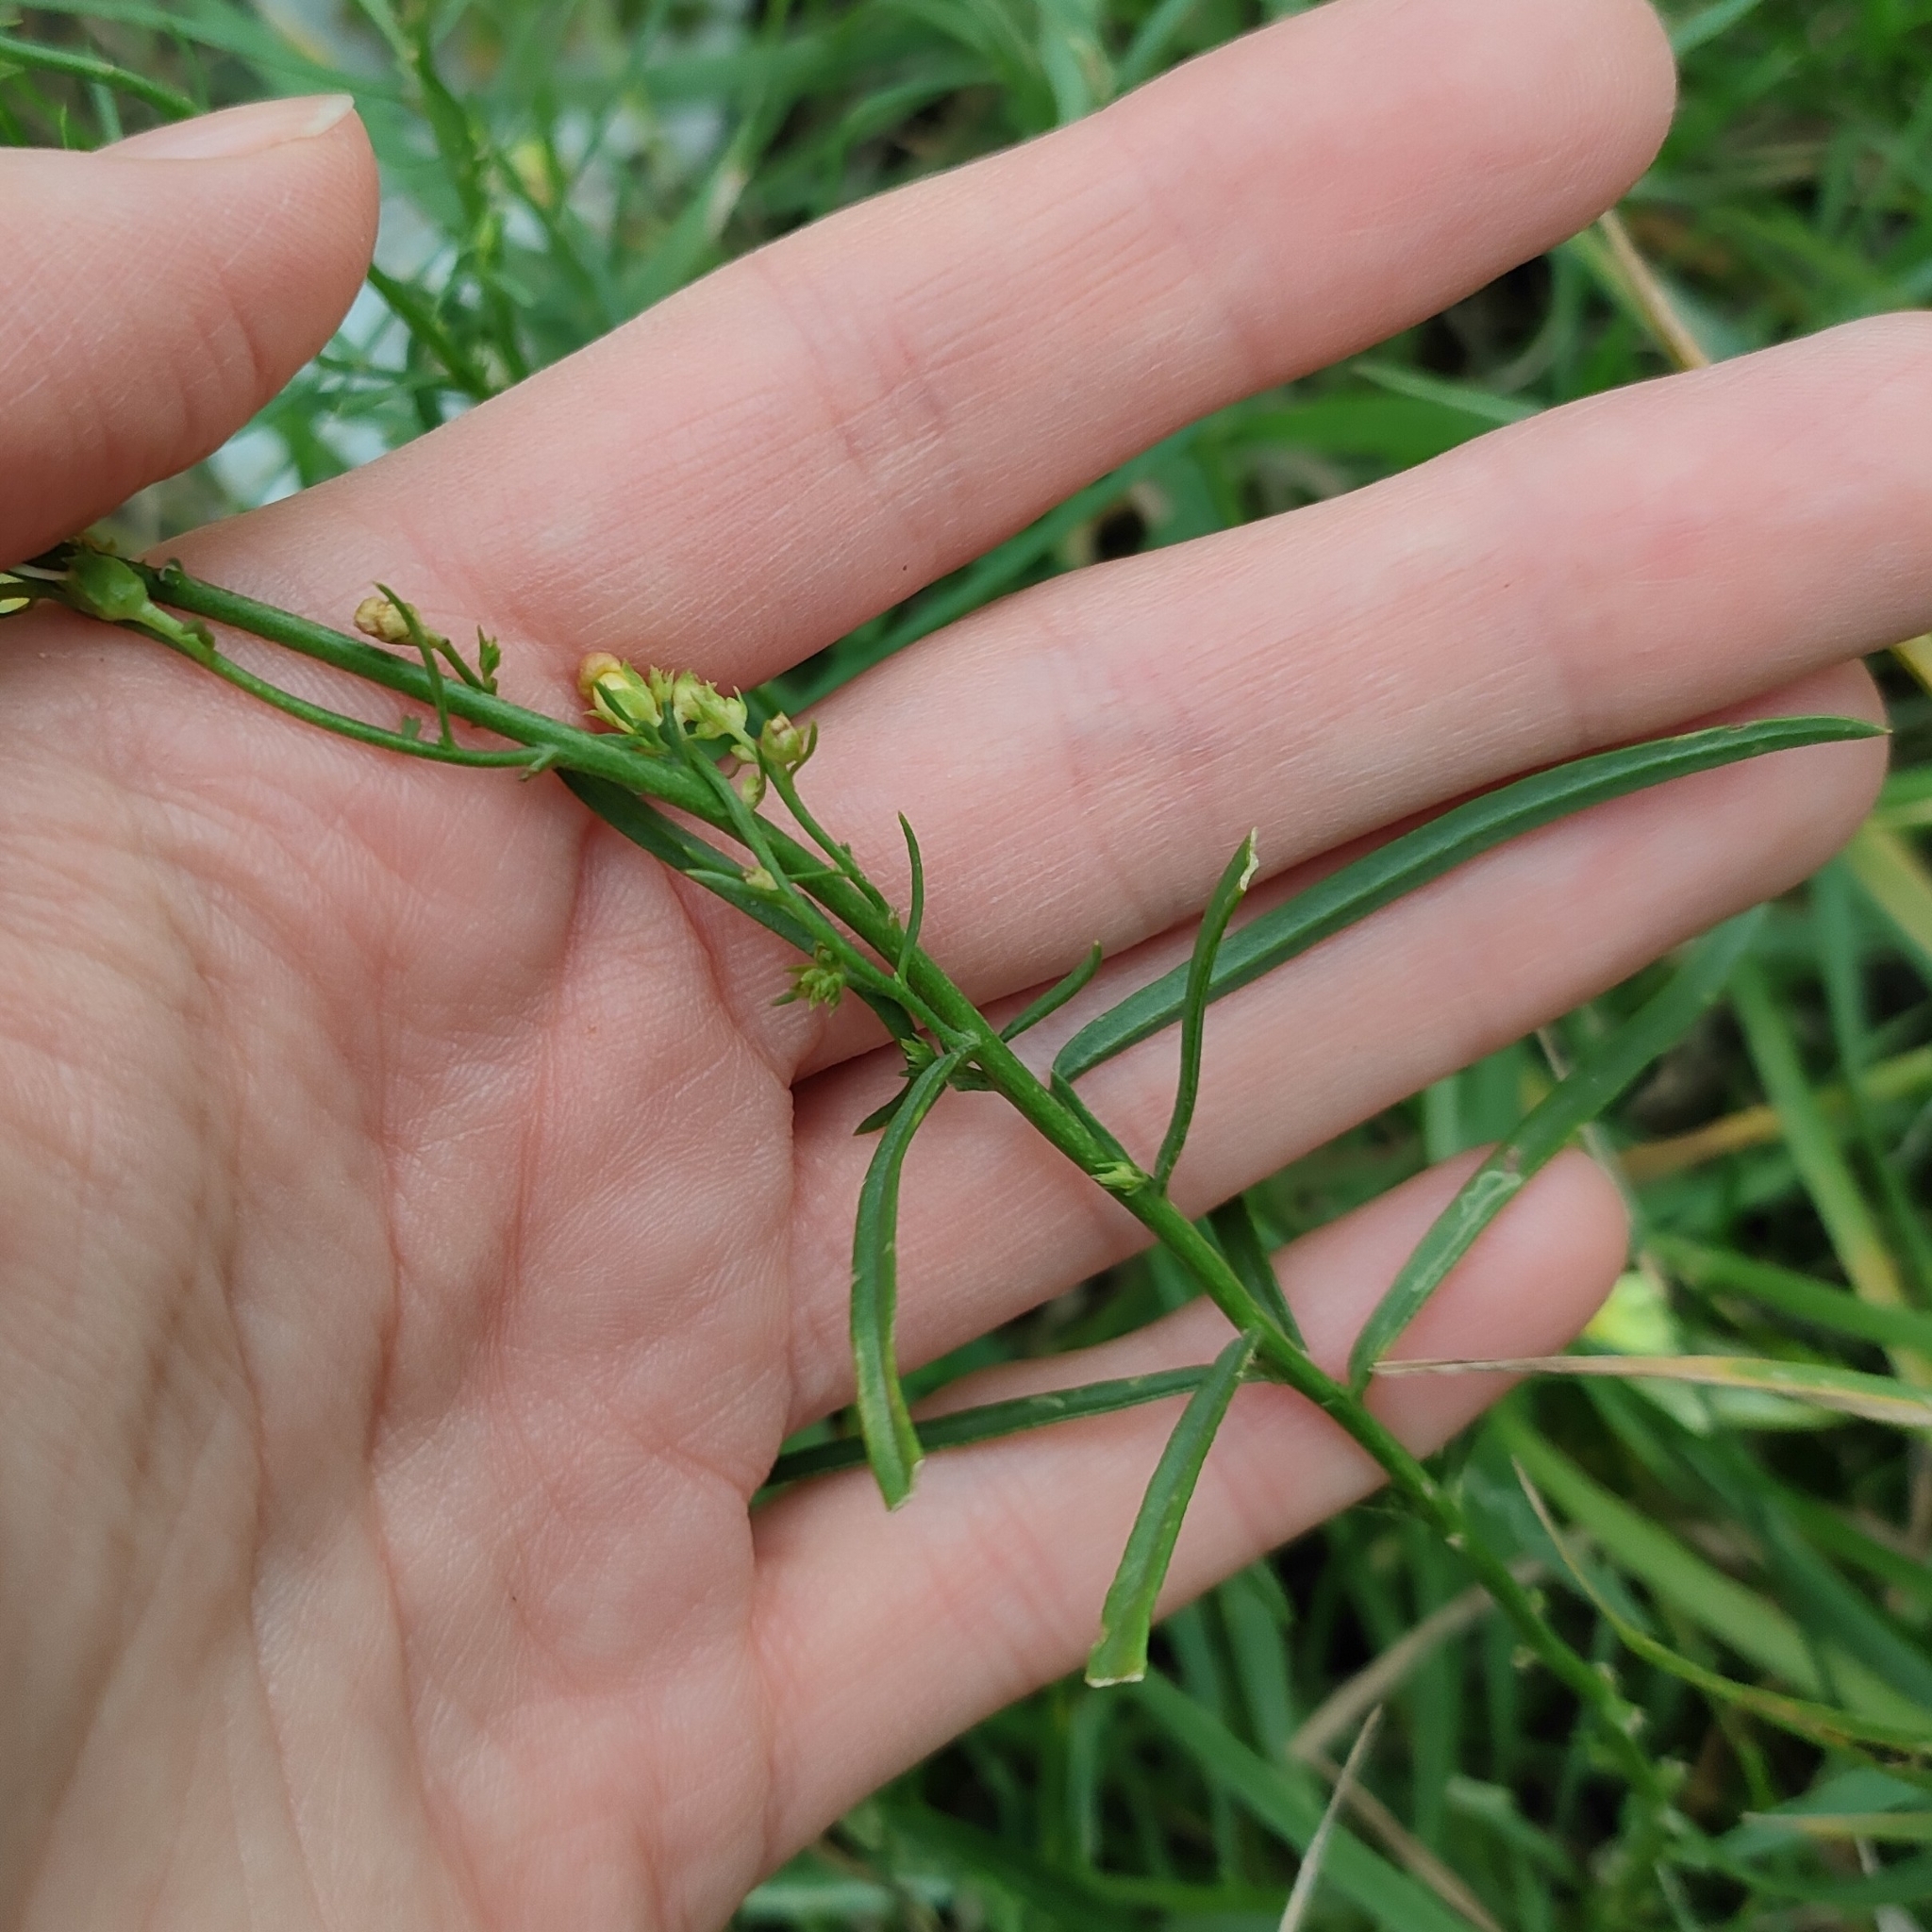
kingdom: Plantae
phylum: Tracheophyta
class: Magnoliopsida
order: Lamiales
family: Plantaginaceae
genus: Linaria
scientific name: Linaria vulgaris
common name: Butter and eggs
